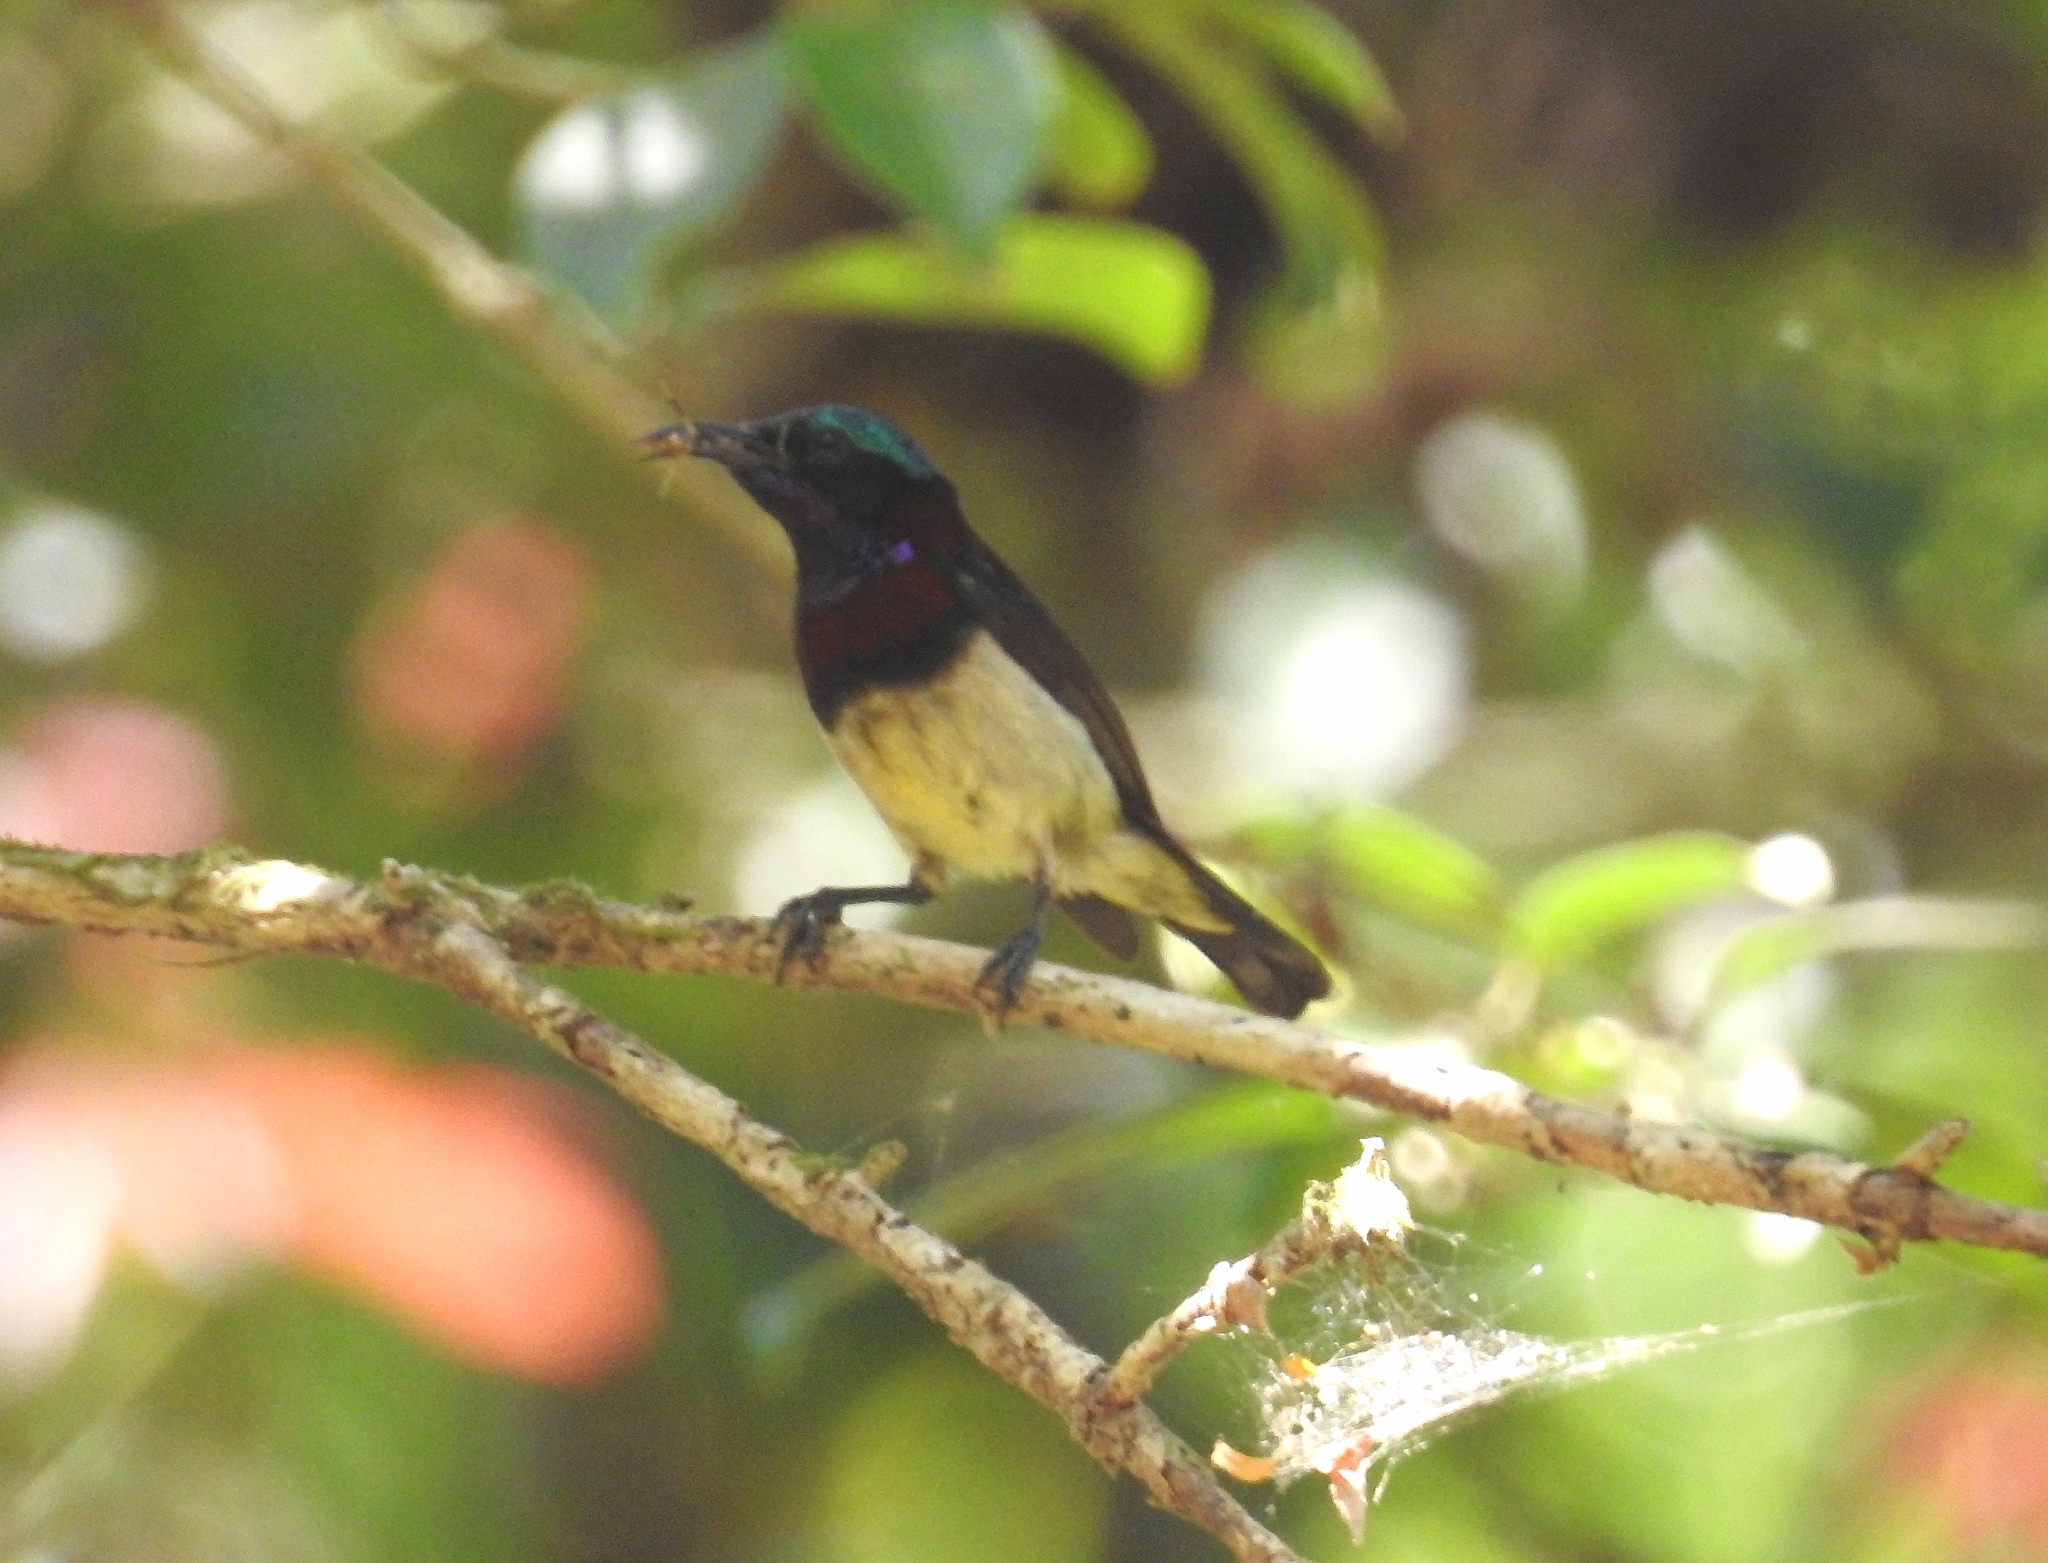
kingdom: Animalia
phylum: Chordata
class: Aves
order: Passeriformes
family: Nectariniidae
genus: Leptocoma
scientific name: Leptocoma minima
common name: Crimson-backed sunbird
